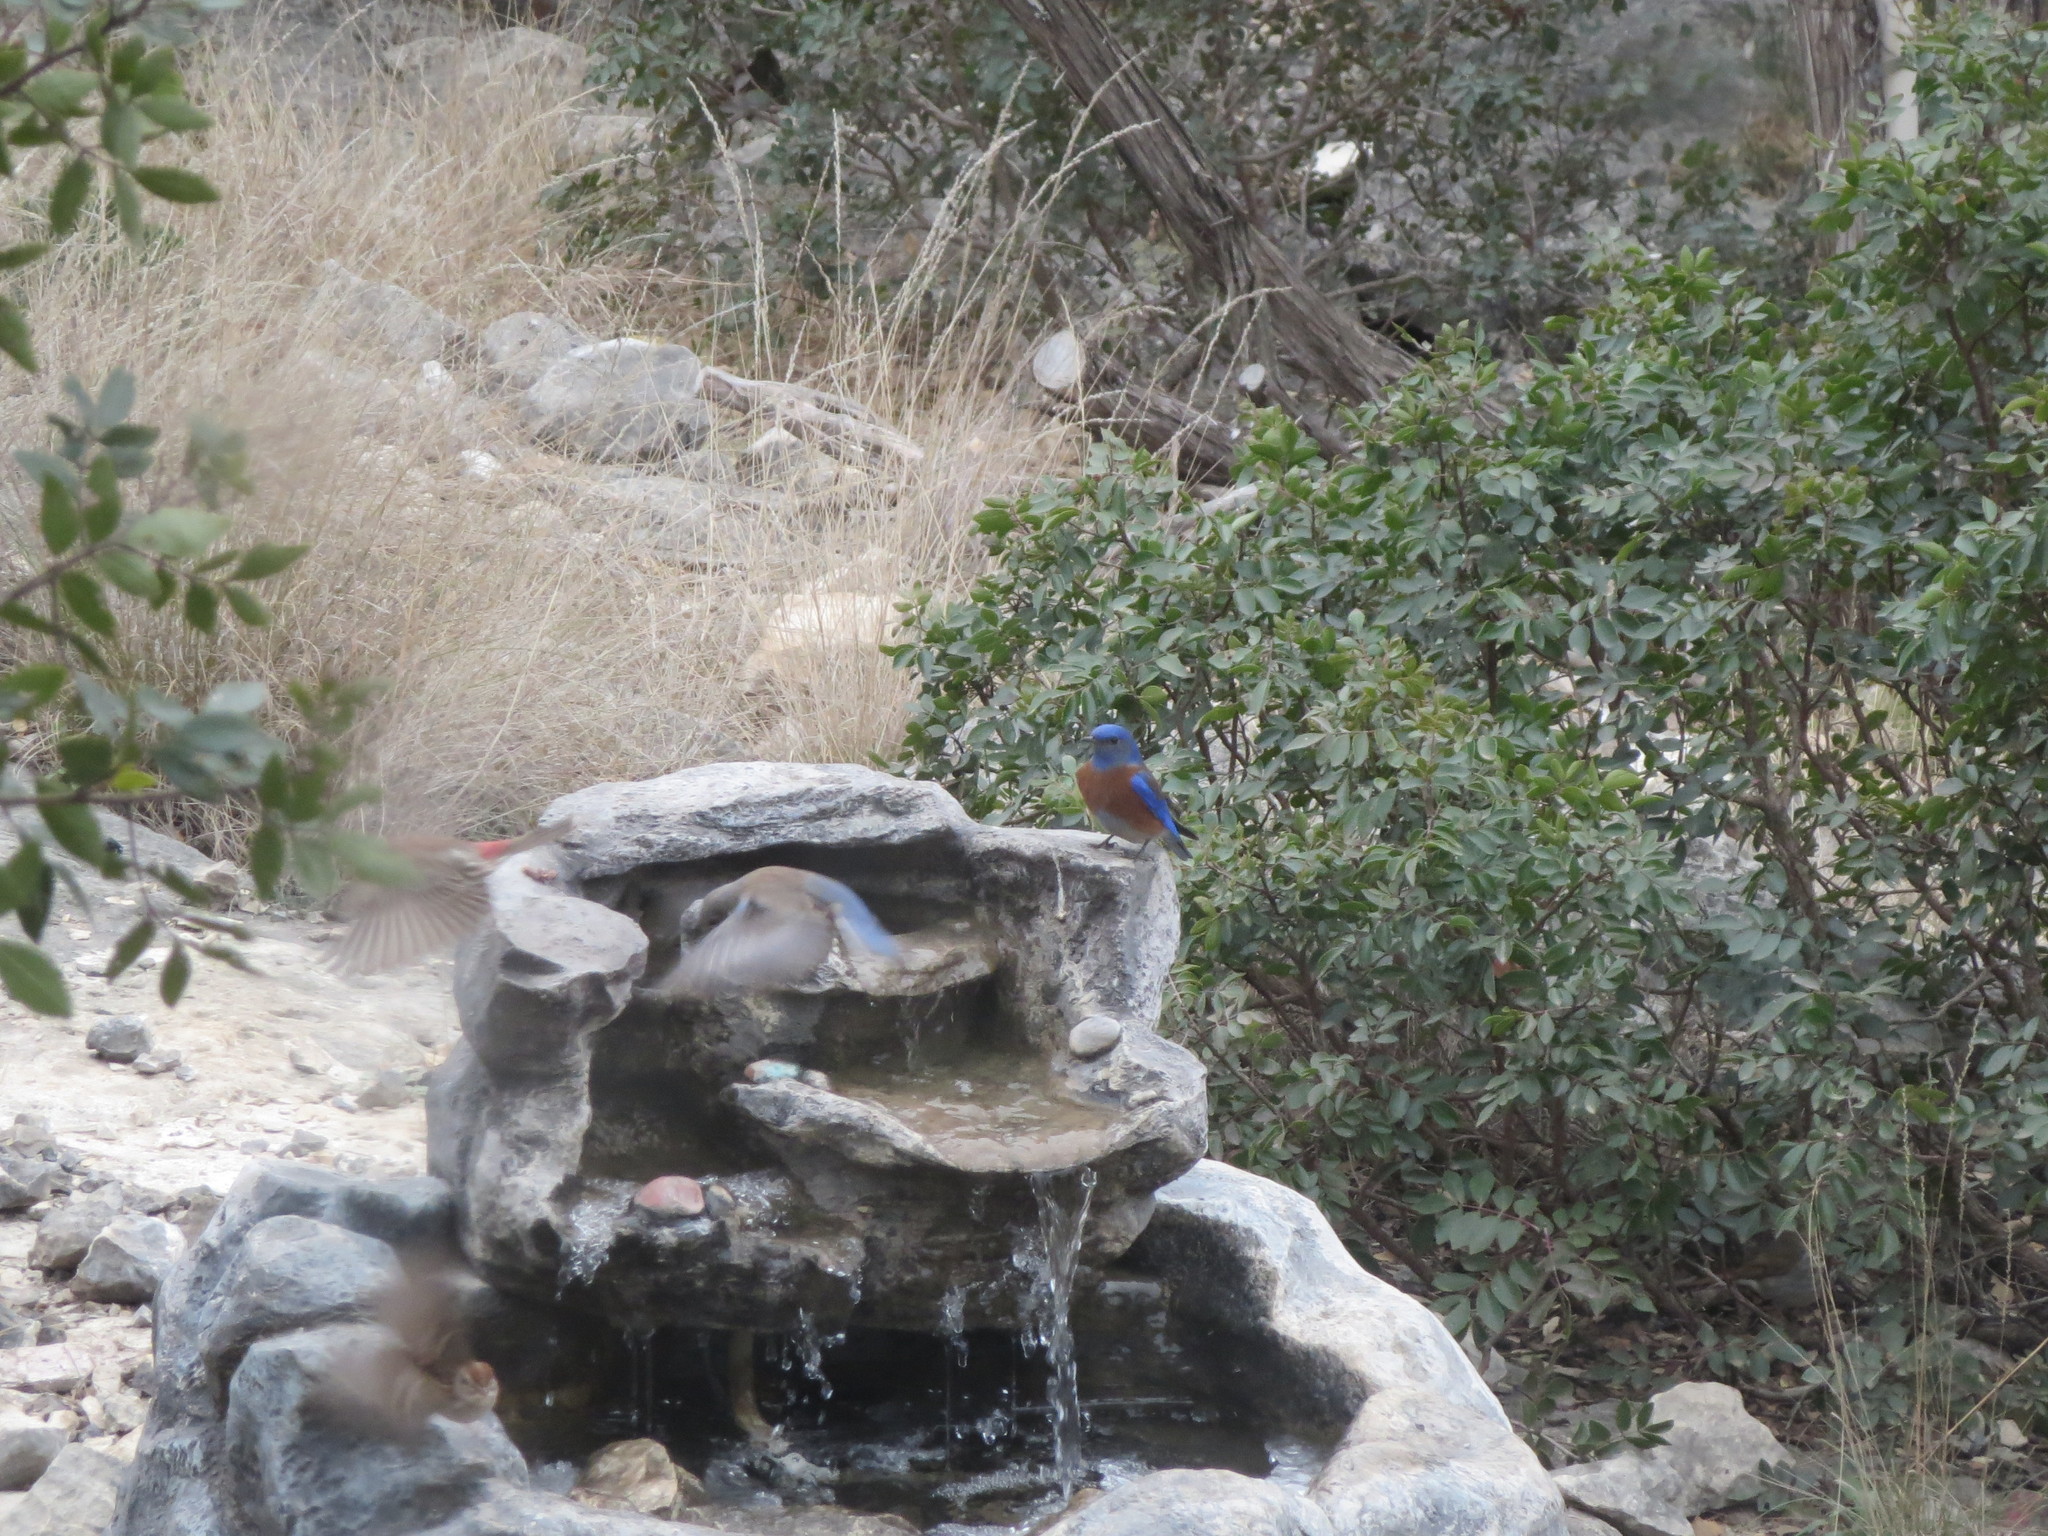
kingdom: Animalia
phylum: Chordata
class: Aves
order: Passeriformes
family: Turdidae
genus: Sialia
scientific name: Sialia sialis
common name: Eastern bluebird
